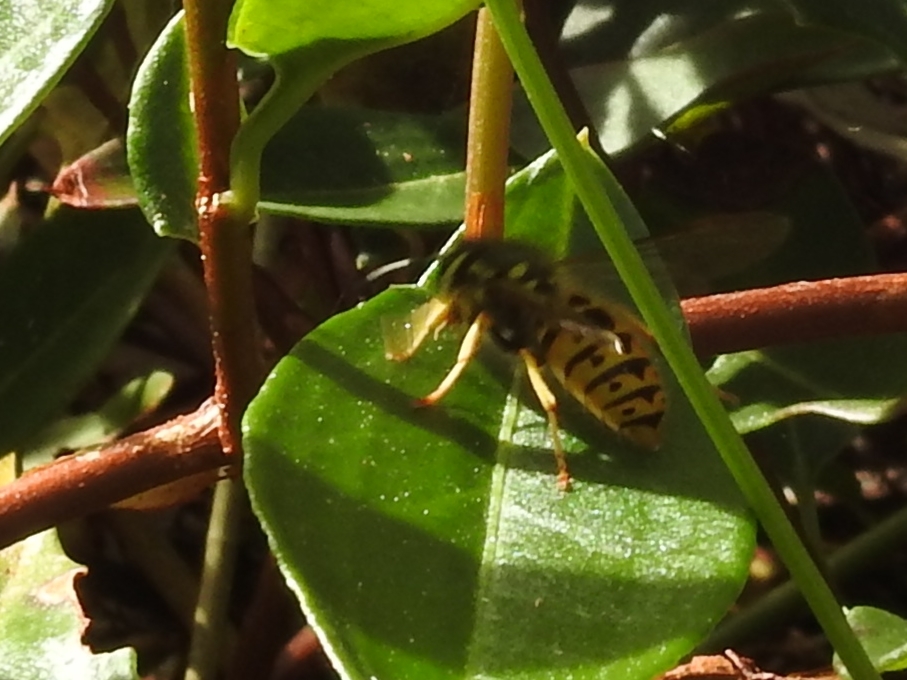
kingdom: Animalia
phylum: Arthropoda
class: Insecta
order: Hymenoptera
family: Vespidae
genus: Vespula
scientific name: Vespula germanica
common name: German wasp
